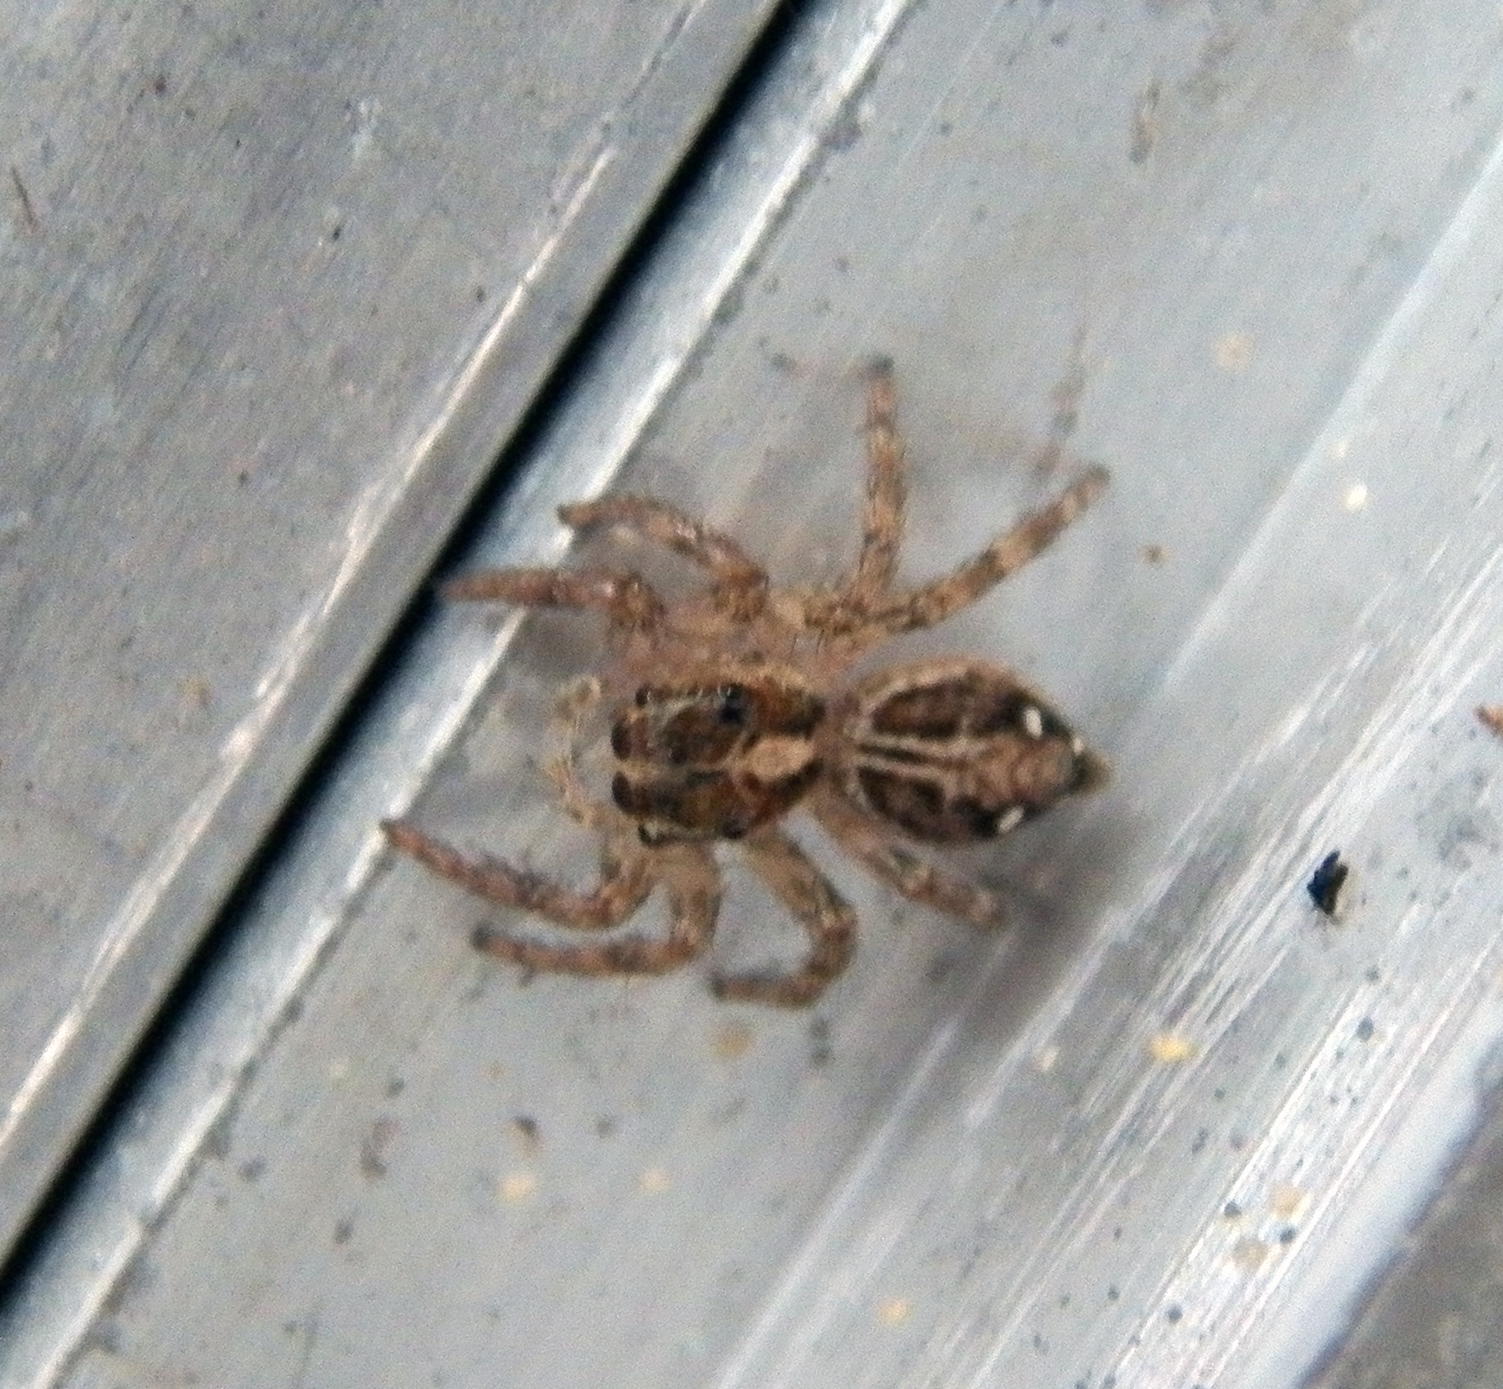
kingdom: Animalia
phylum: Arthropoda
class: Arachnida
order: Araneae
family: Salticidae
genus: Plexippus
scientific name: Plexippus paykulli
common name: Pantropical jumper
